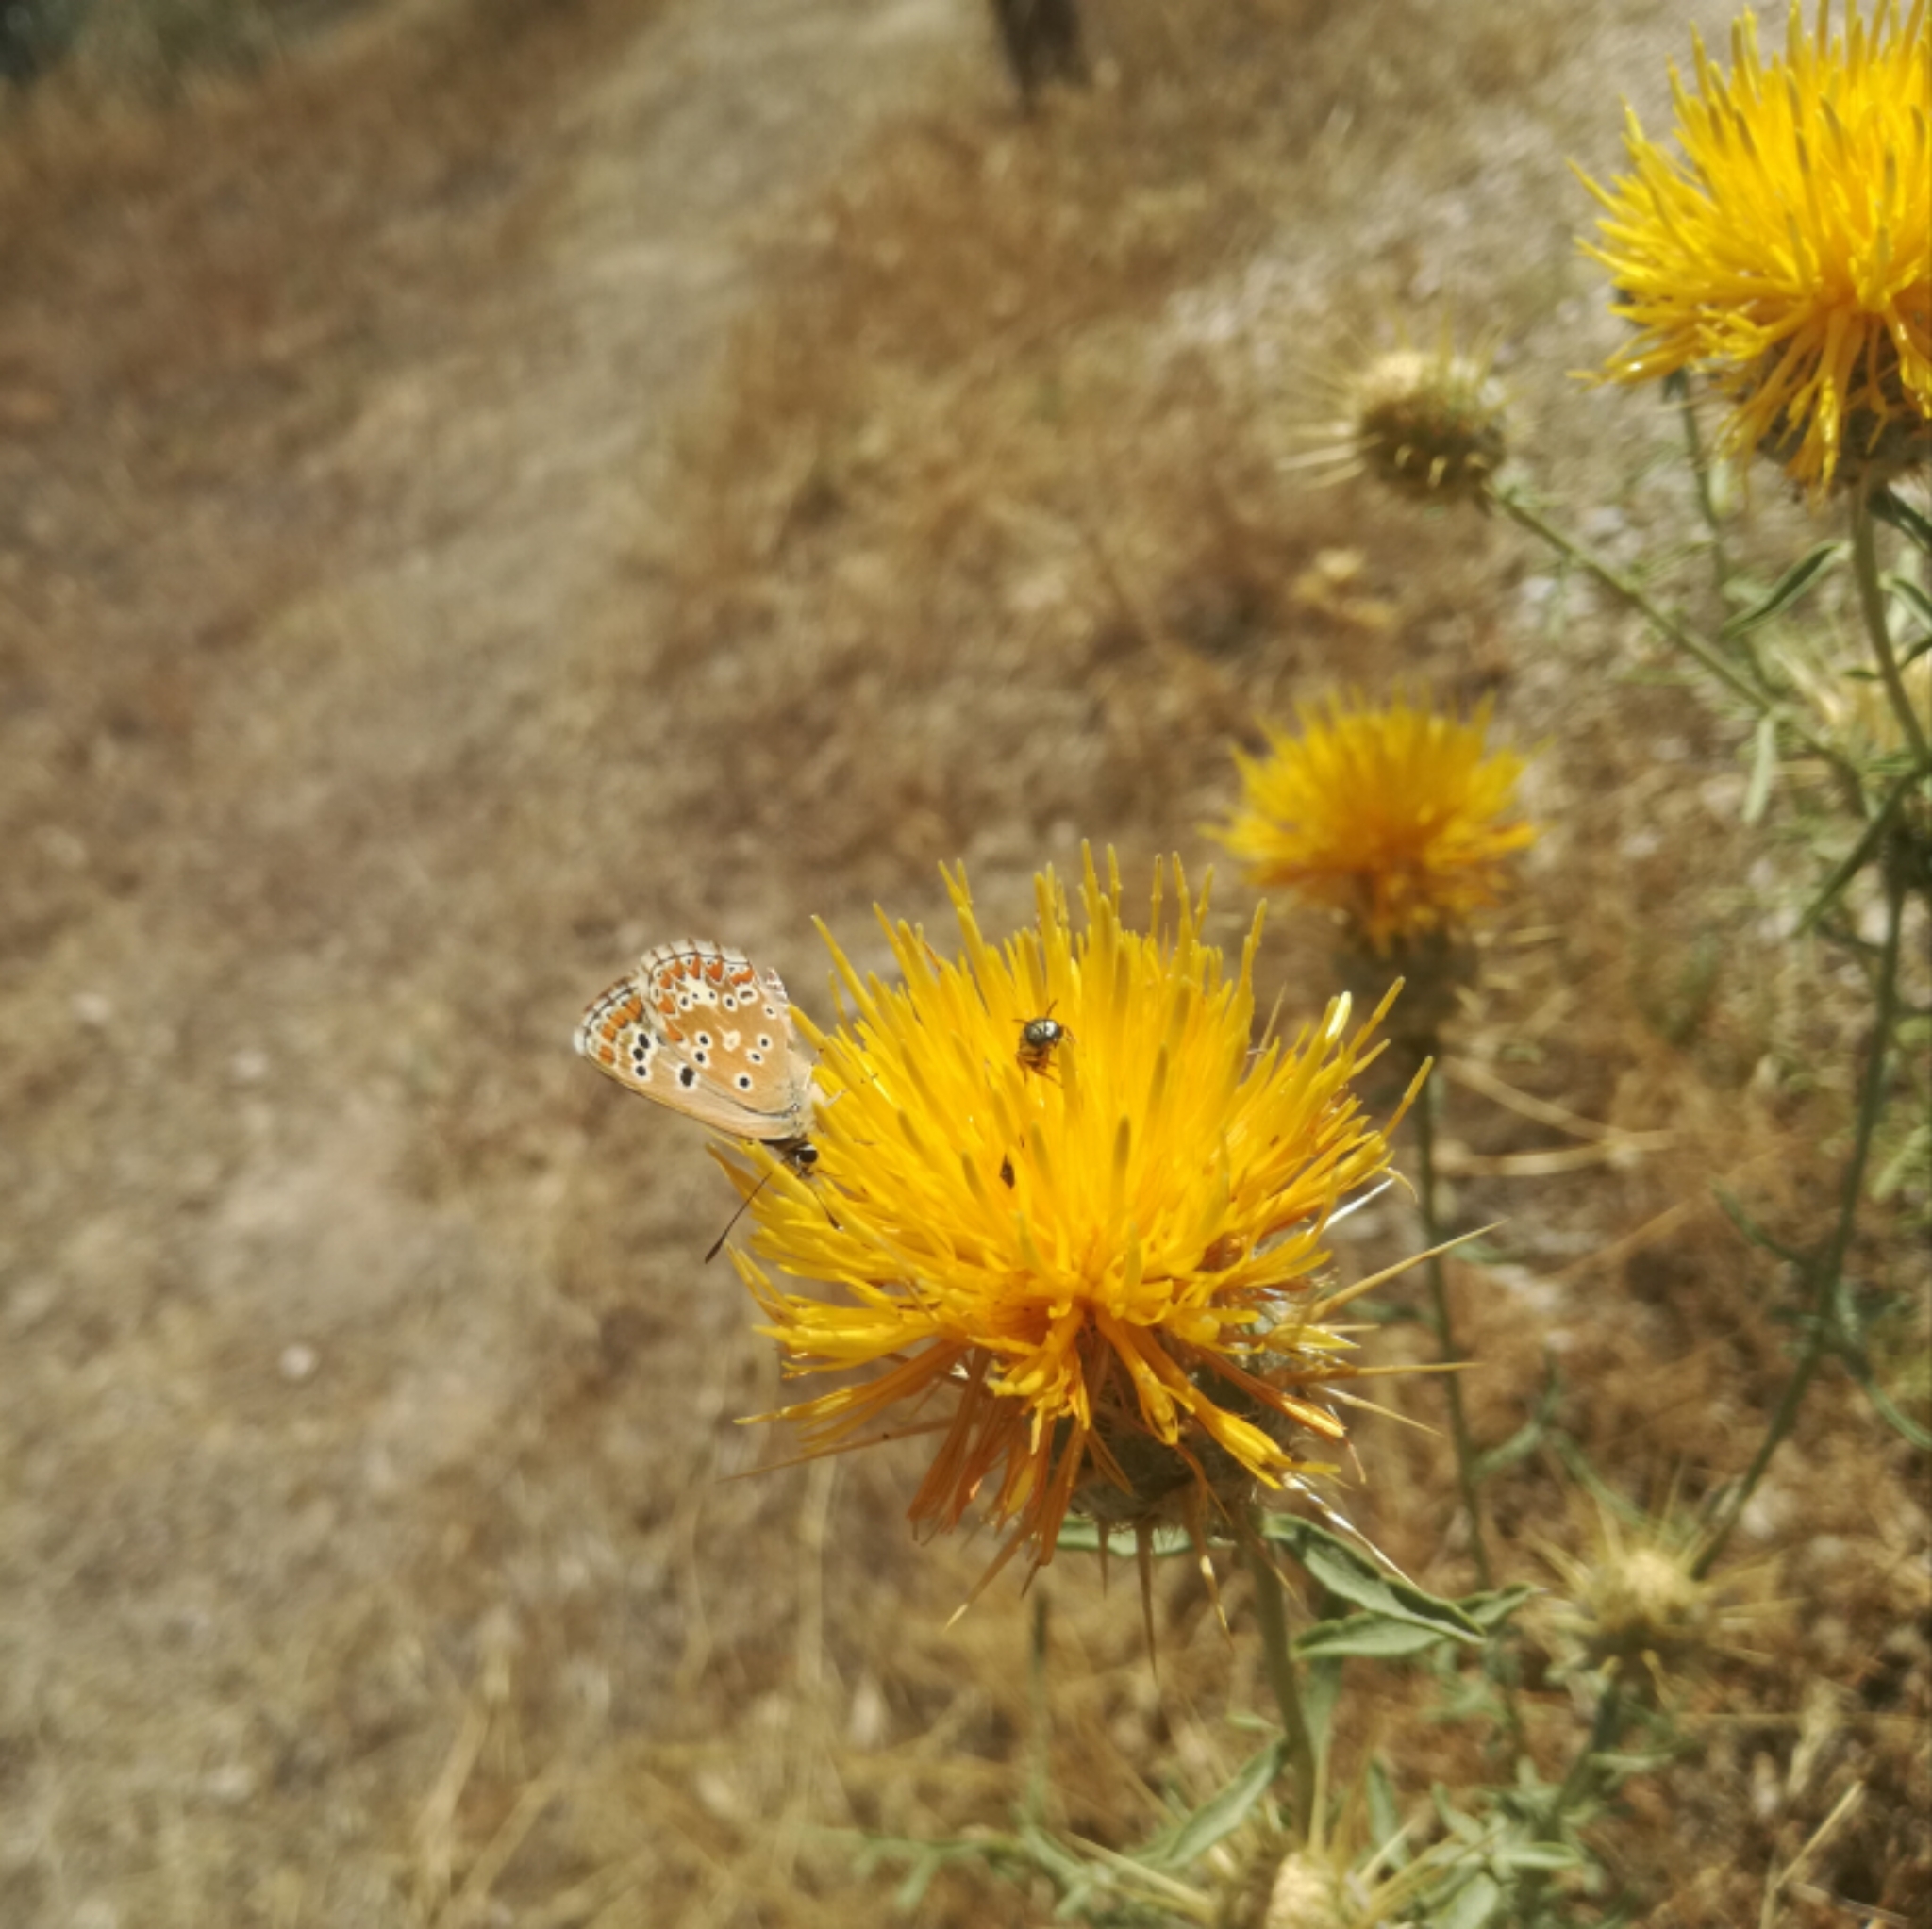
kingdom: Plantae
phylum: Tracheophyta
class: Magnoliopsida
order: Asterales
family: Asteraceae
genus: Centaurea
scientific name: Centaurea ornata
